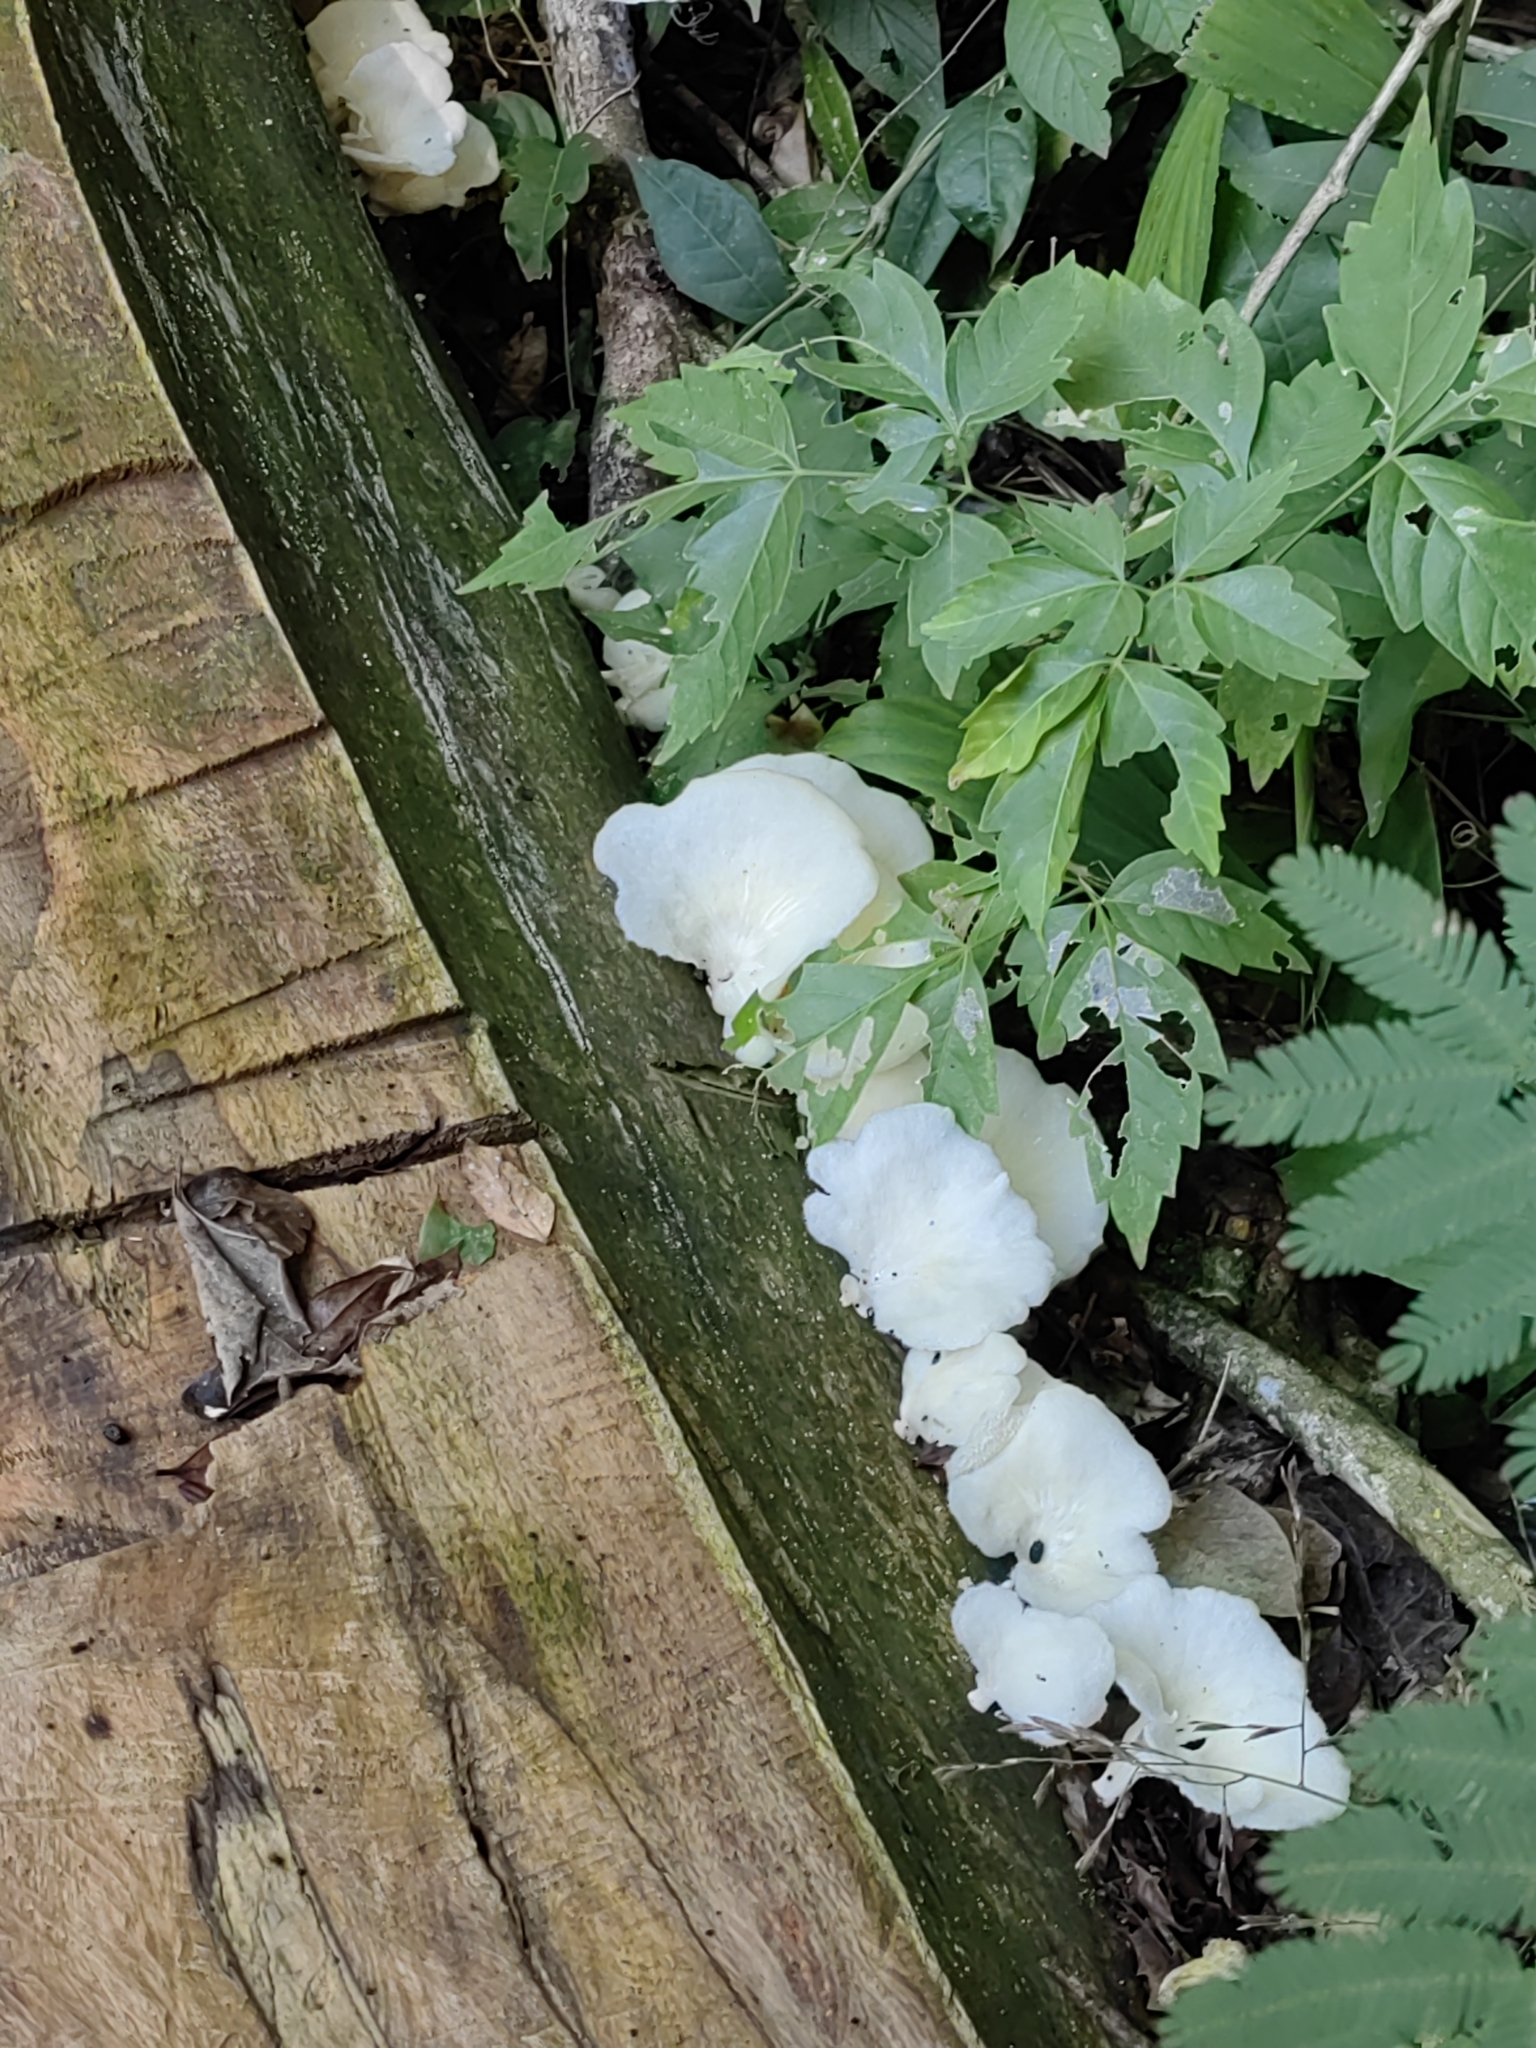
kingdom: Fungi
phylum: Basidiomycota
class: Agaricomycetes
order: Polyporales
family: Polyporaceae
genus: Favolus
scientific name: Favolus tenuiculus
